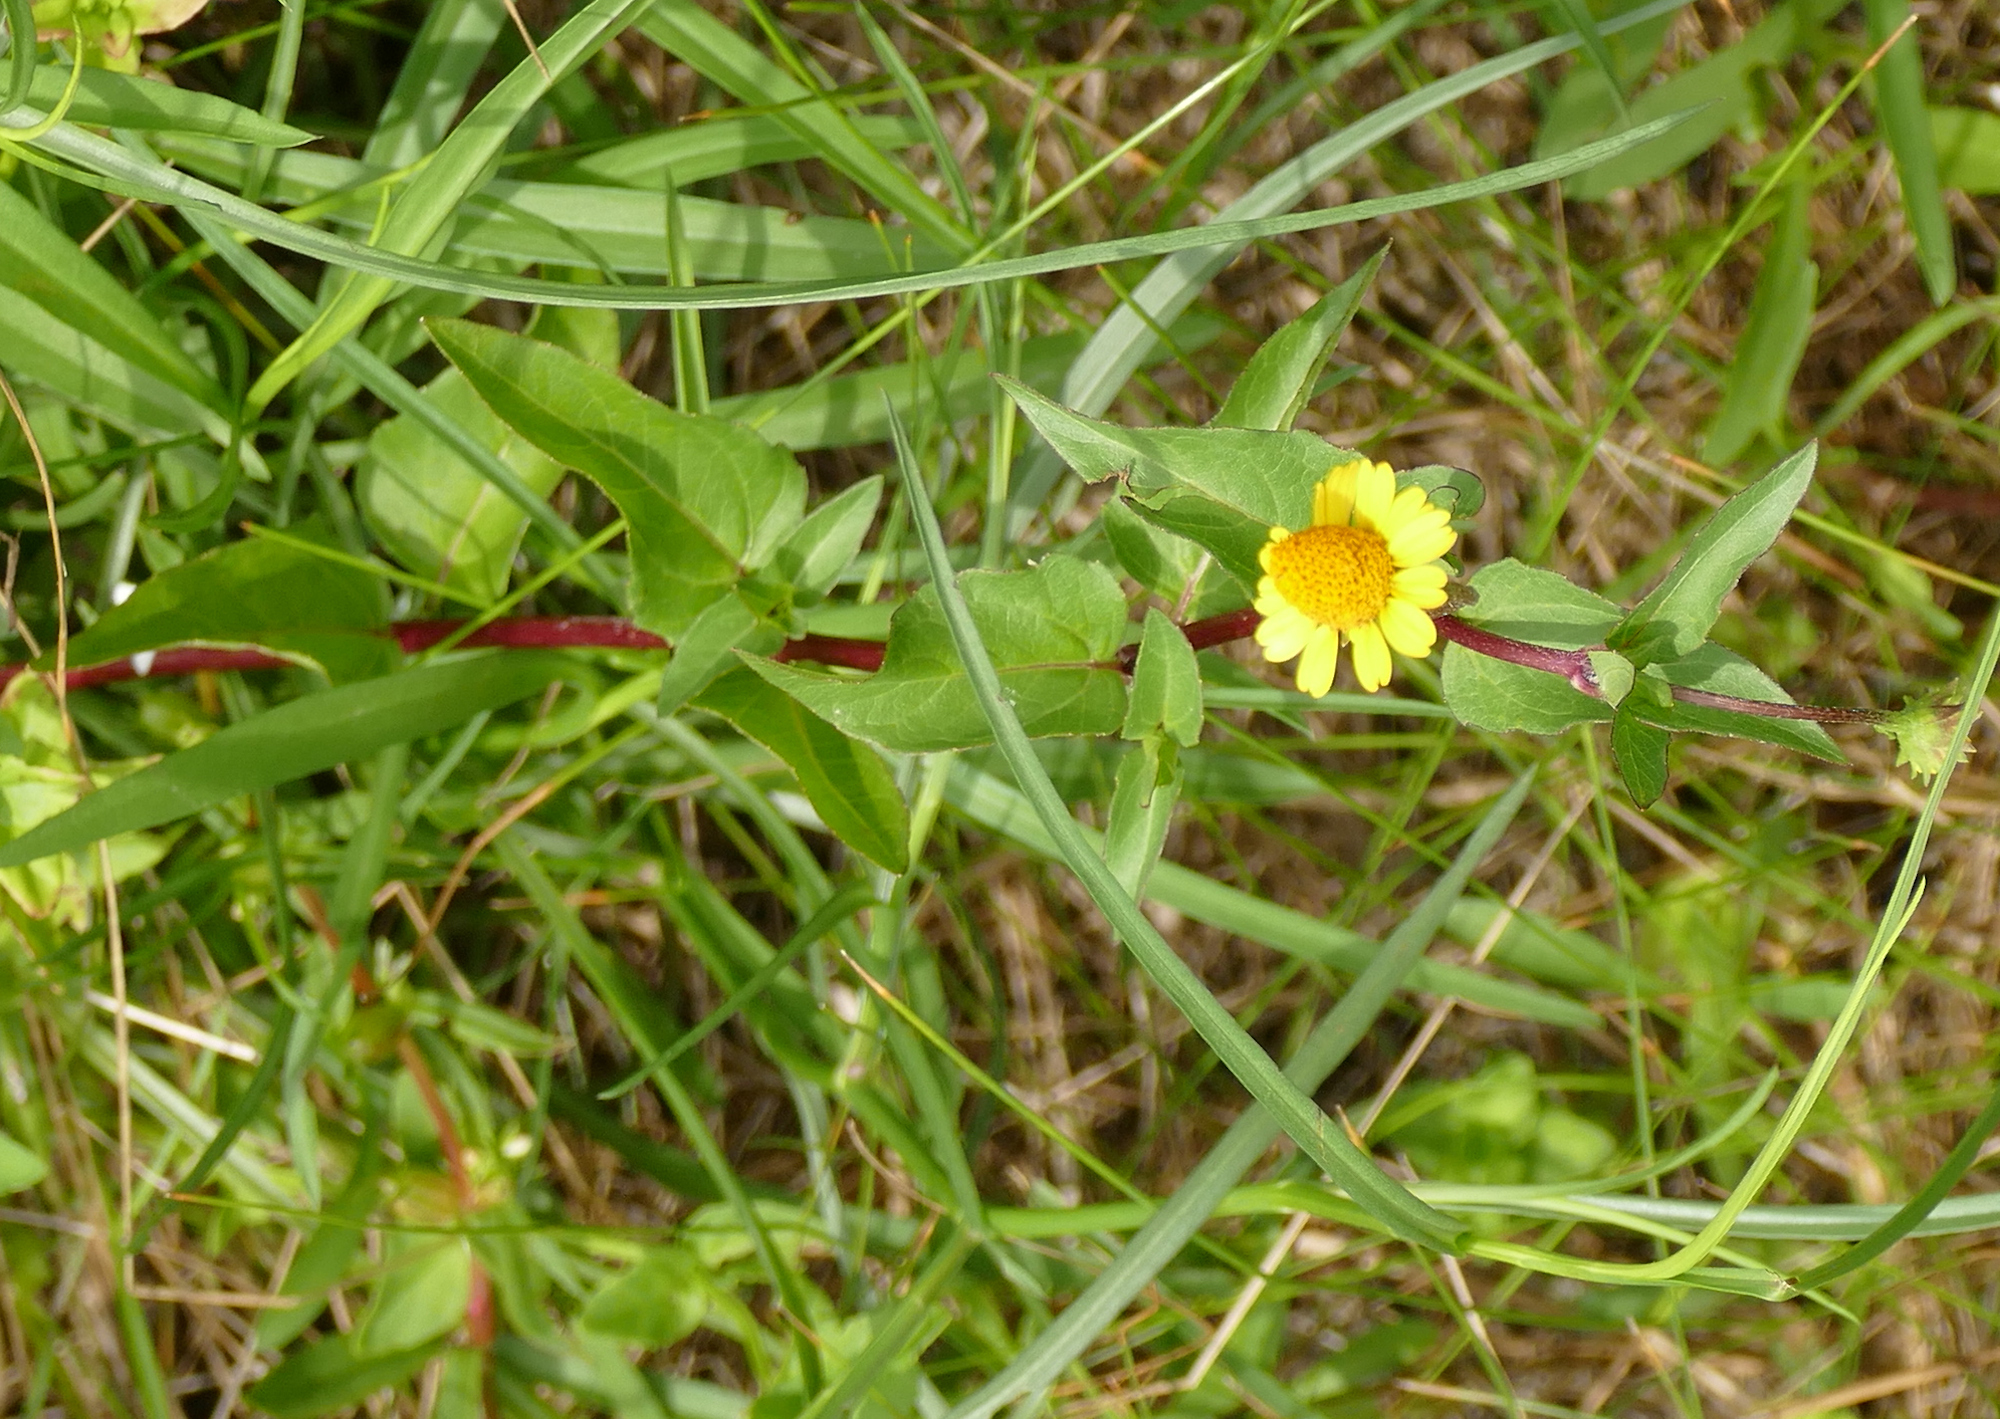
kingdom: Plantae
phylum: Tracheophyta
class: Magnoliopsida
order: Asterales
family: Asteraceae
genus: Acmella
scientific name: Acmella repens
